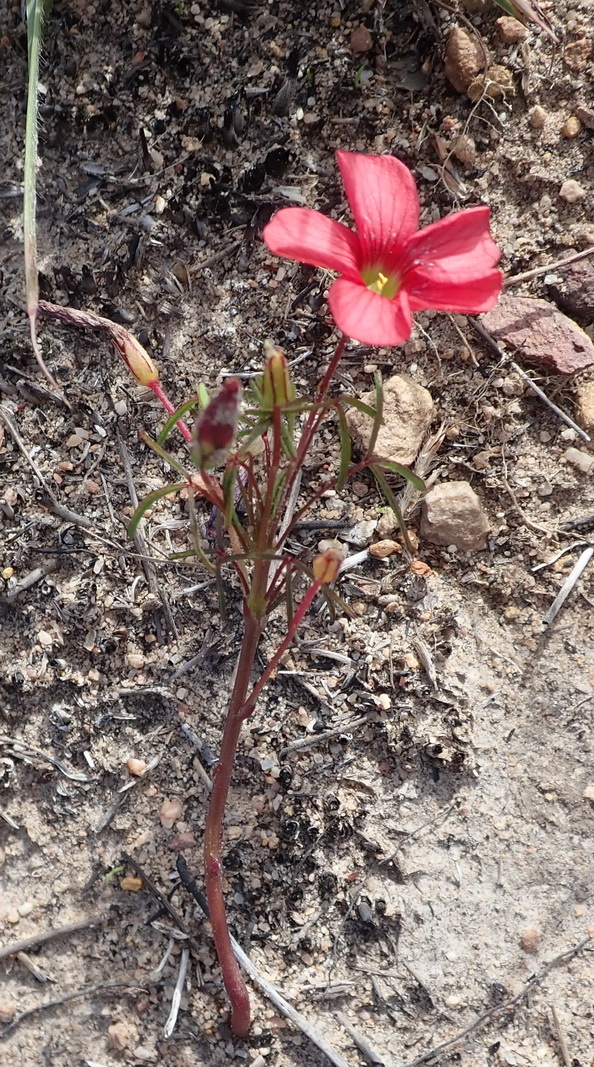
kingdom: Plantae
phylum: Tracheophyta
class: Magnoliopsida
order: Oxalidales
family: Oxalidaceae
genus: Oxalis
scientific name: Oxalis pendulifolia
